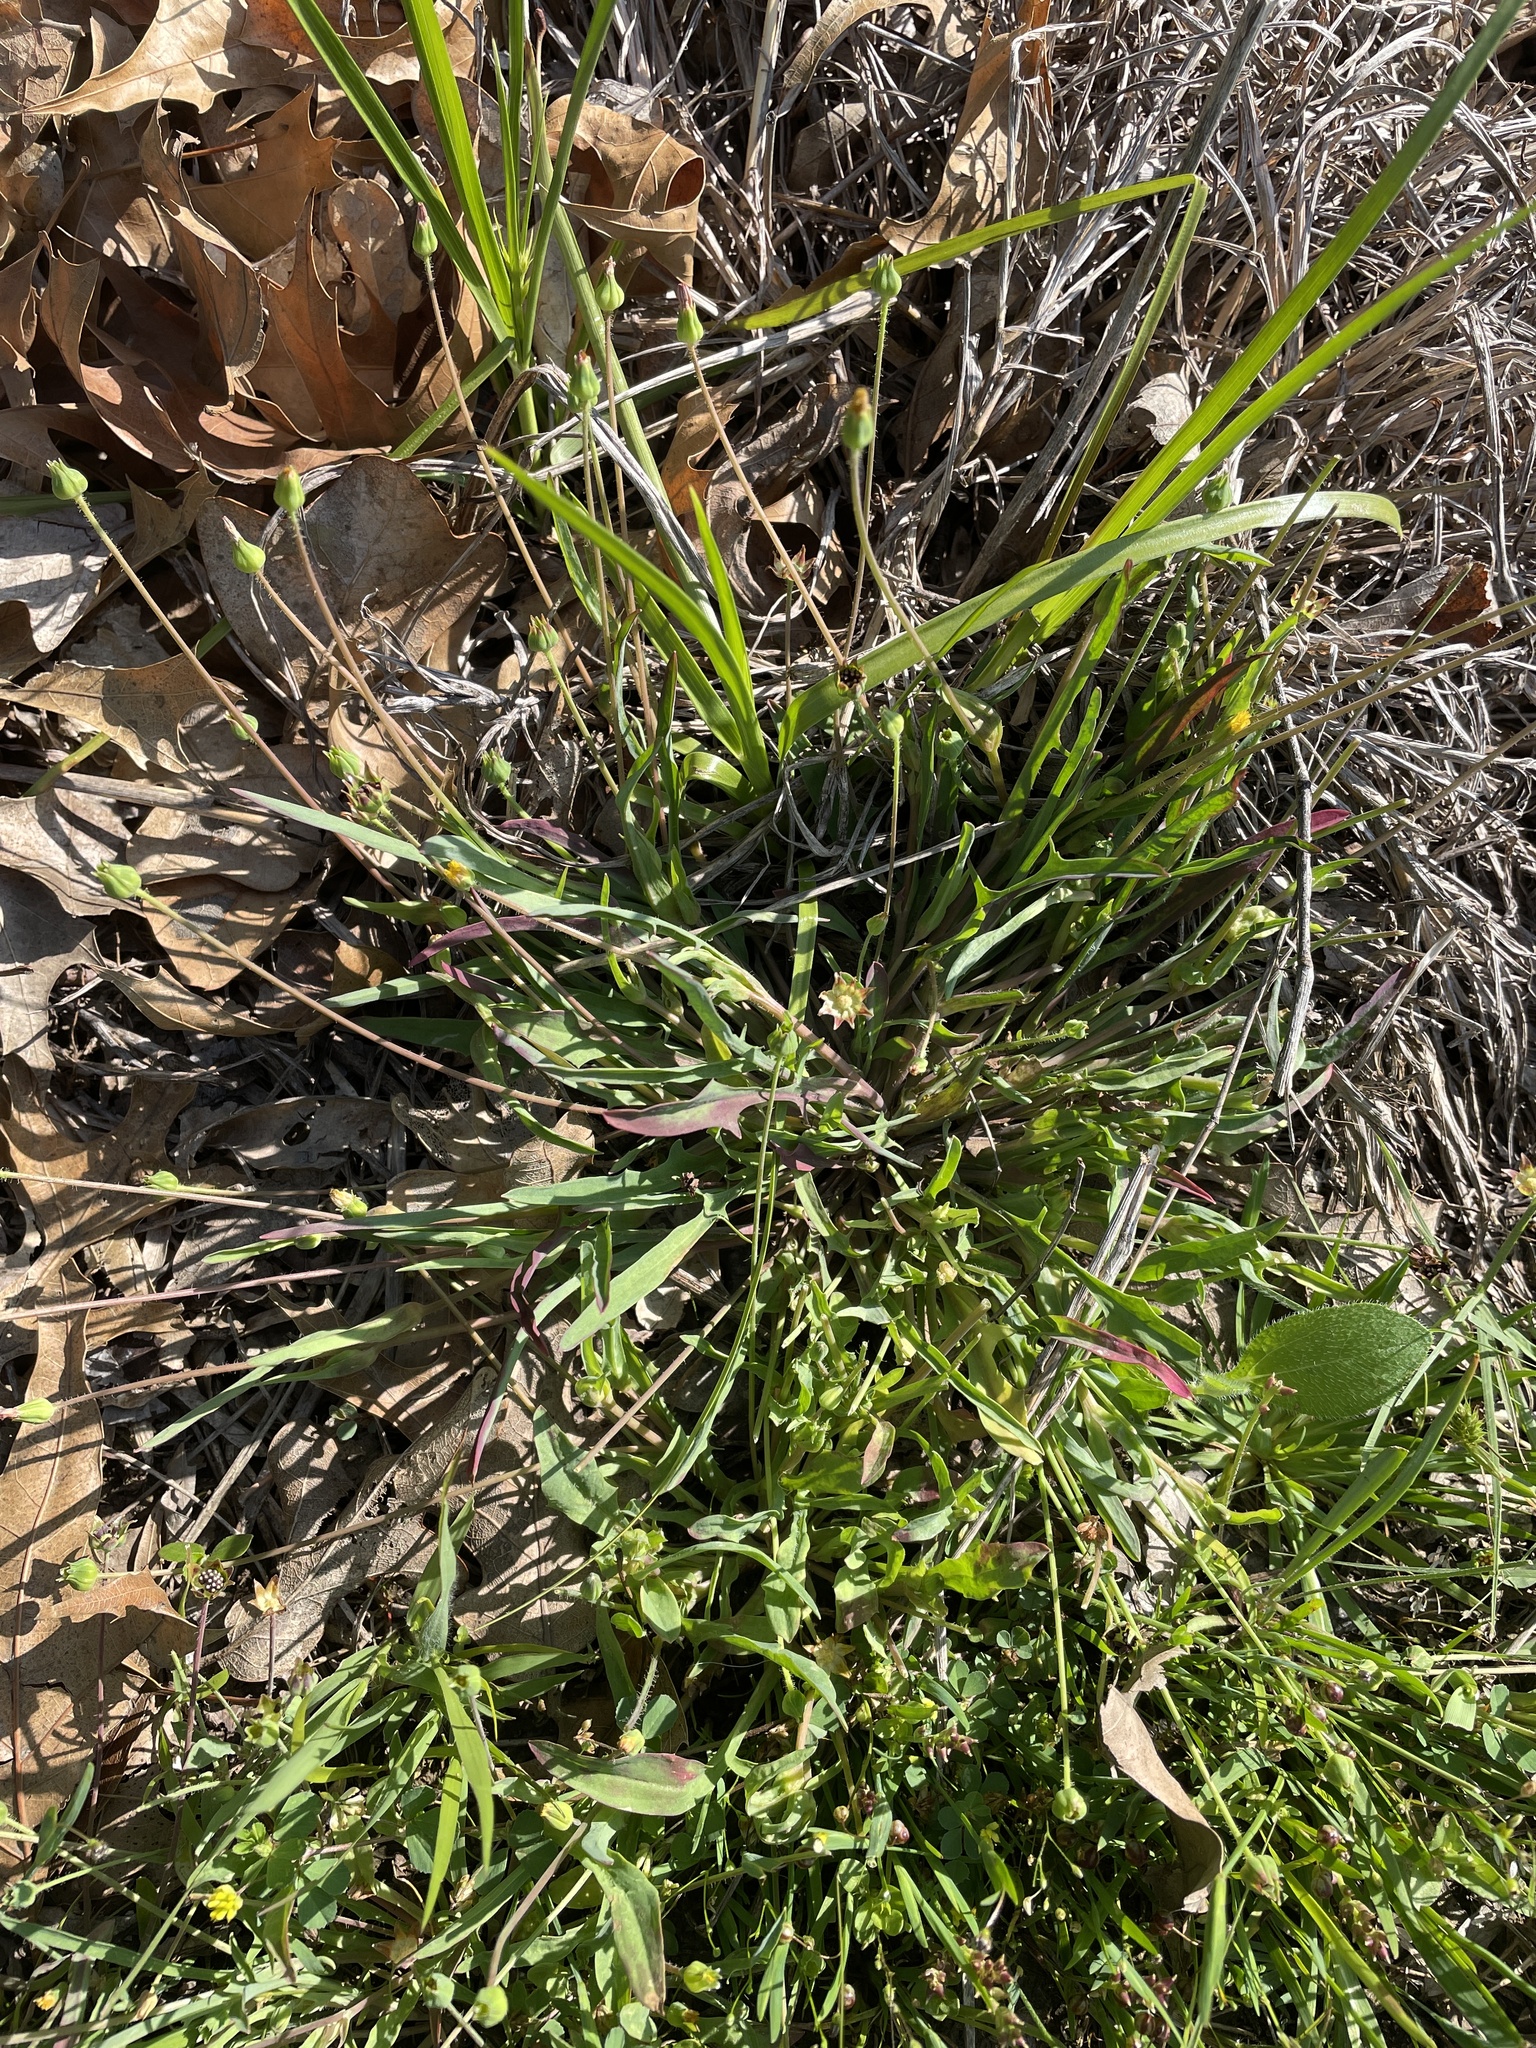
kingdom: Plantae
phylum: Tracheophyta
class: Magnoliopsida
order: Asterales
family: Asteraceae
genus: Krigia
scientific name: Krigia wrightii
